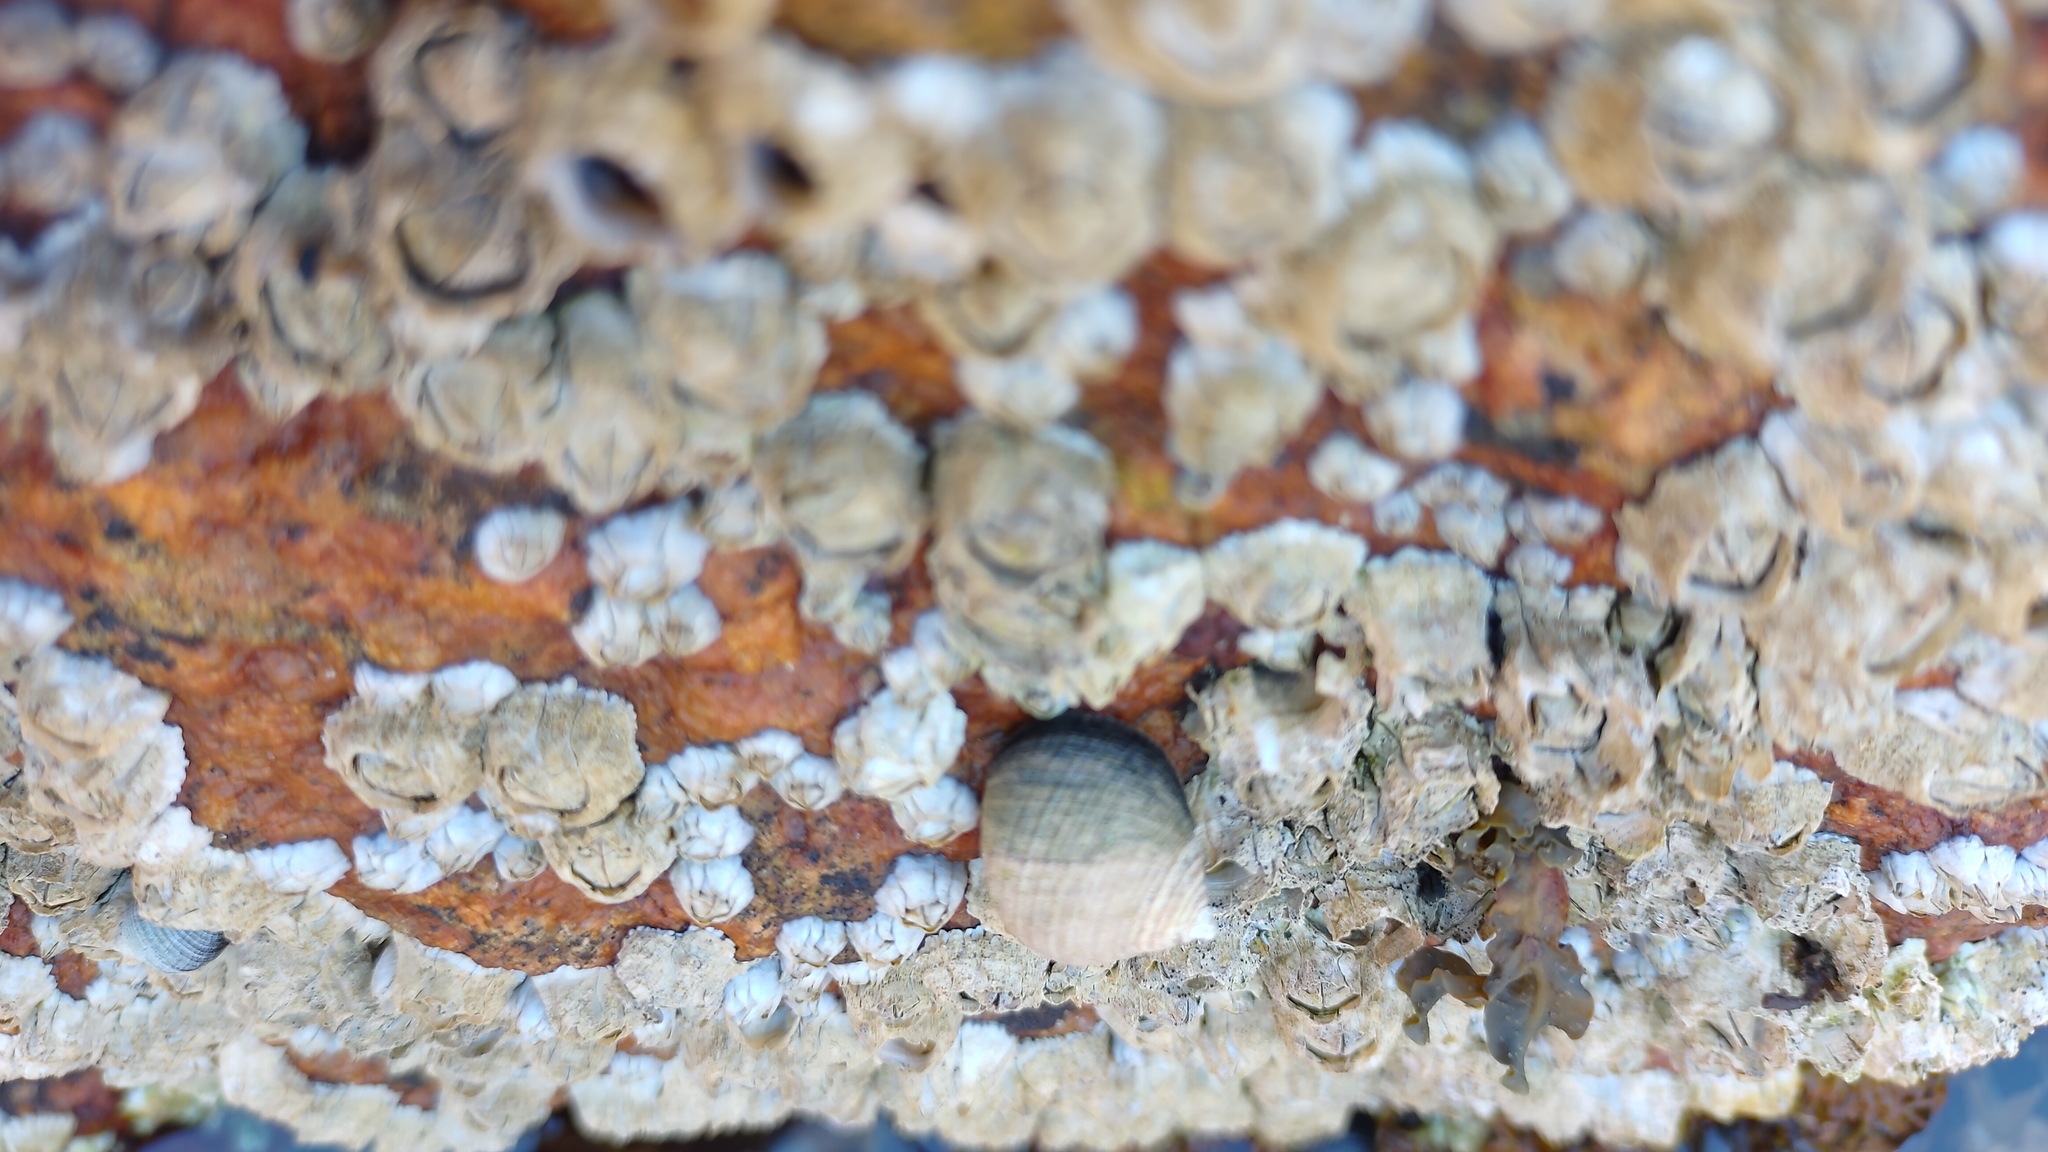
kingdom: Animalia
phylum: Mollusca
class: Gastropoda
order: Littorinimorpha
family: Littorinidae
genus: Littorina
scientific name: Littorina littorea
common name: Common periwinkle
